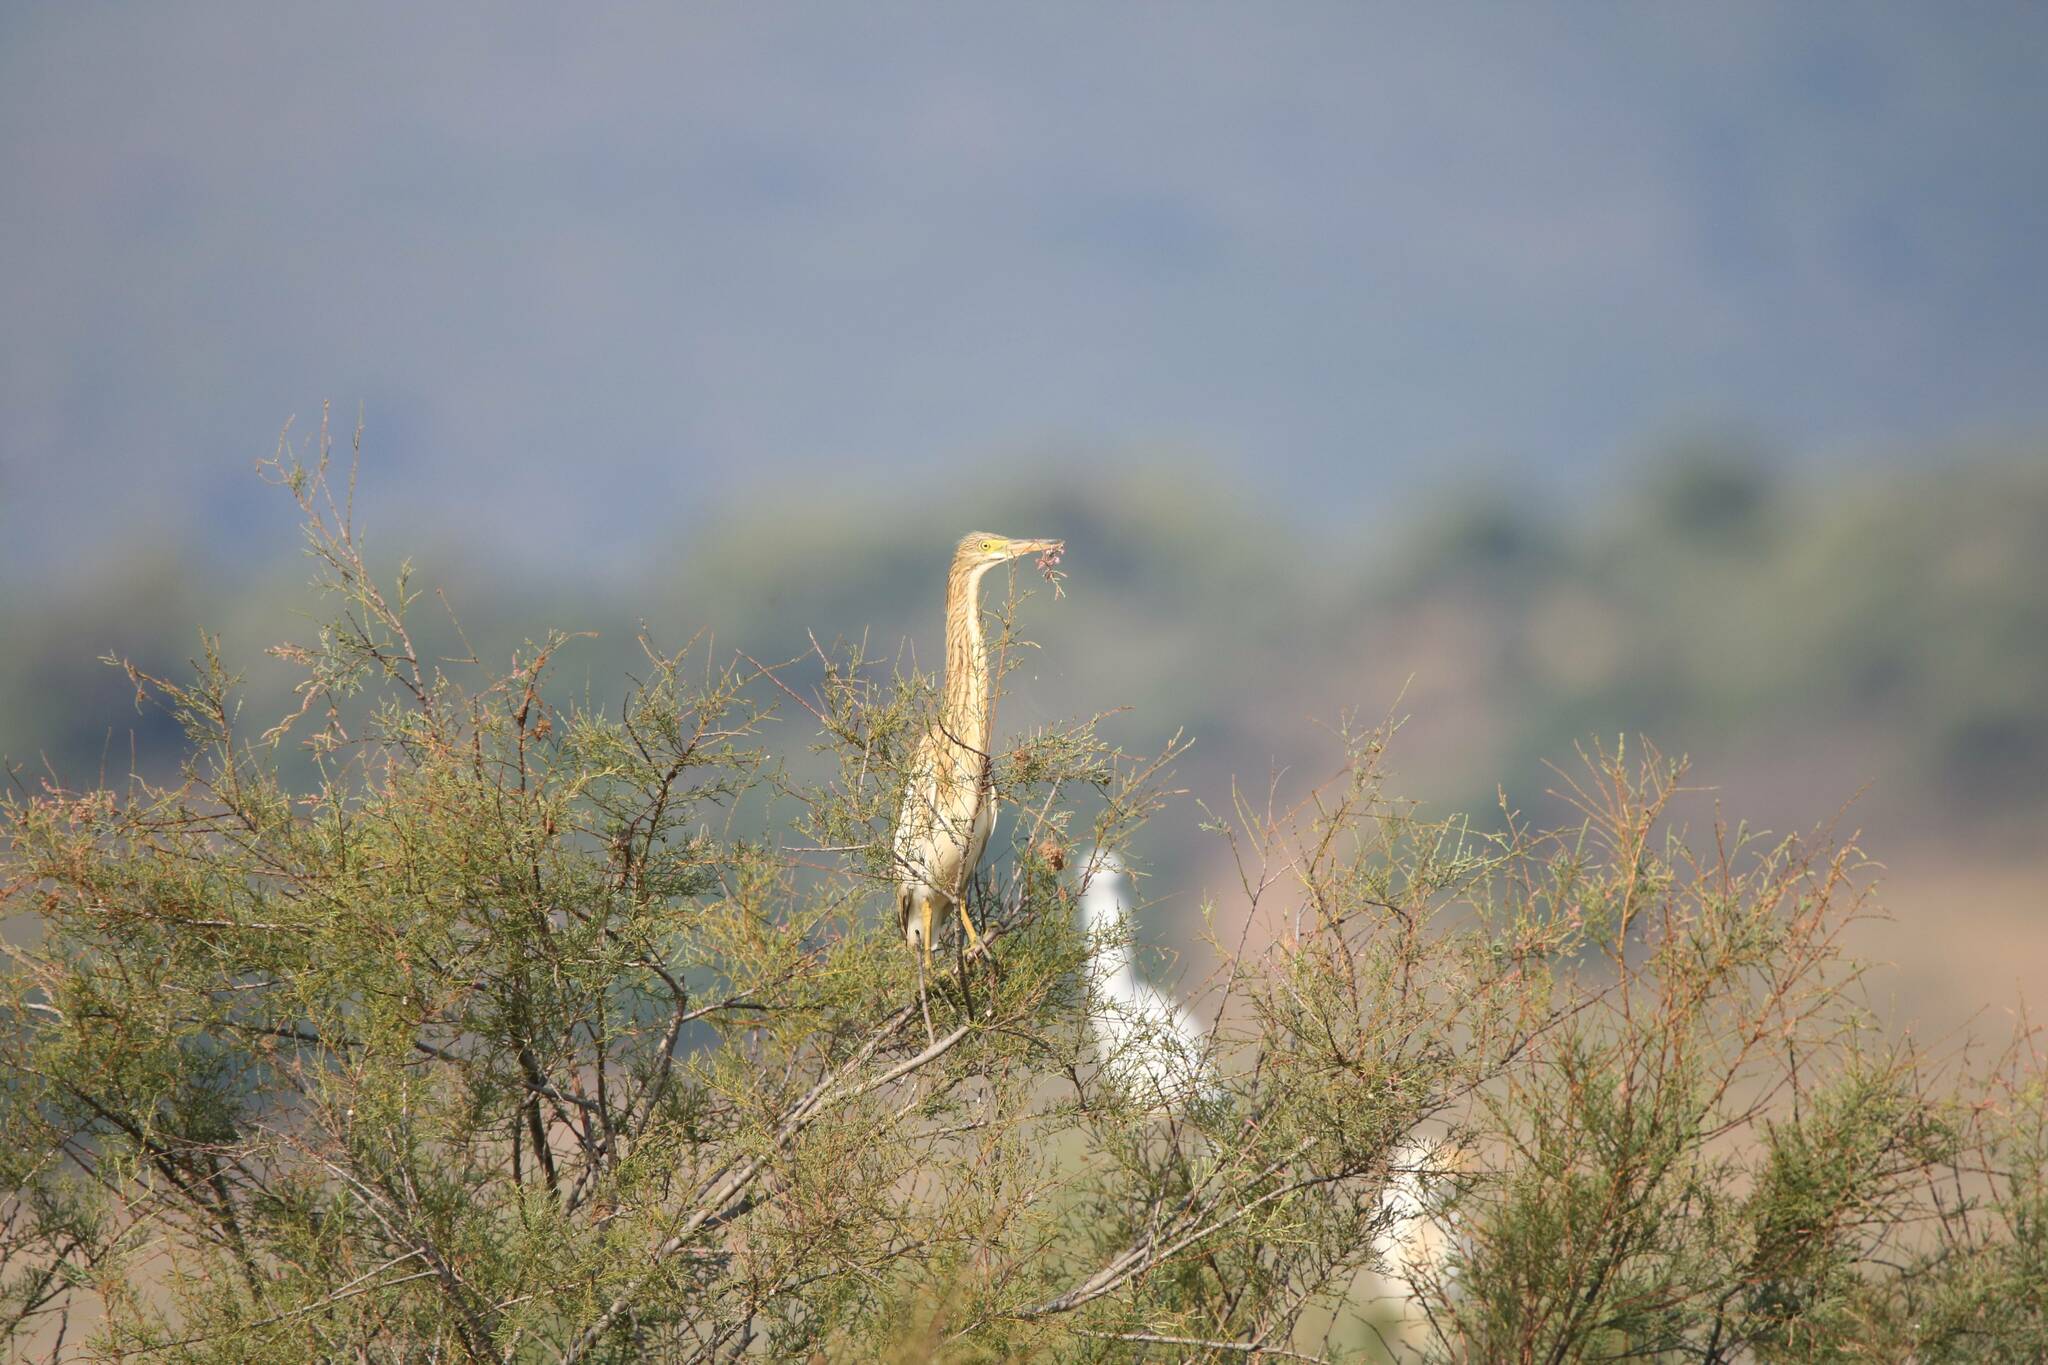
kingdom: Animalia
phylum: Chordata
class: Aves
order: Pelecaniformes
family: Ardeidae
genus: Ardeola
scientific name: Ardeola ralloides
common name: Squacco heron
